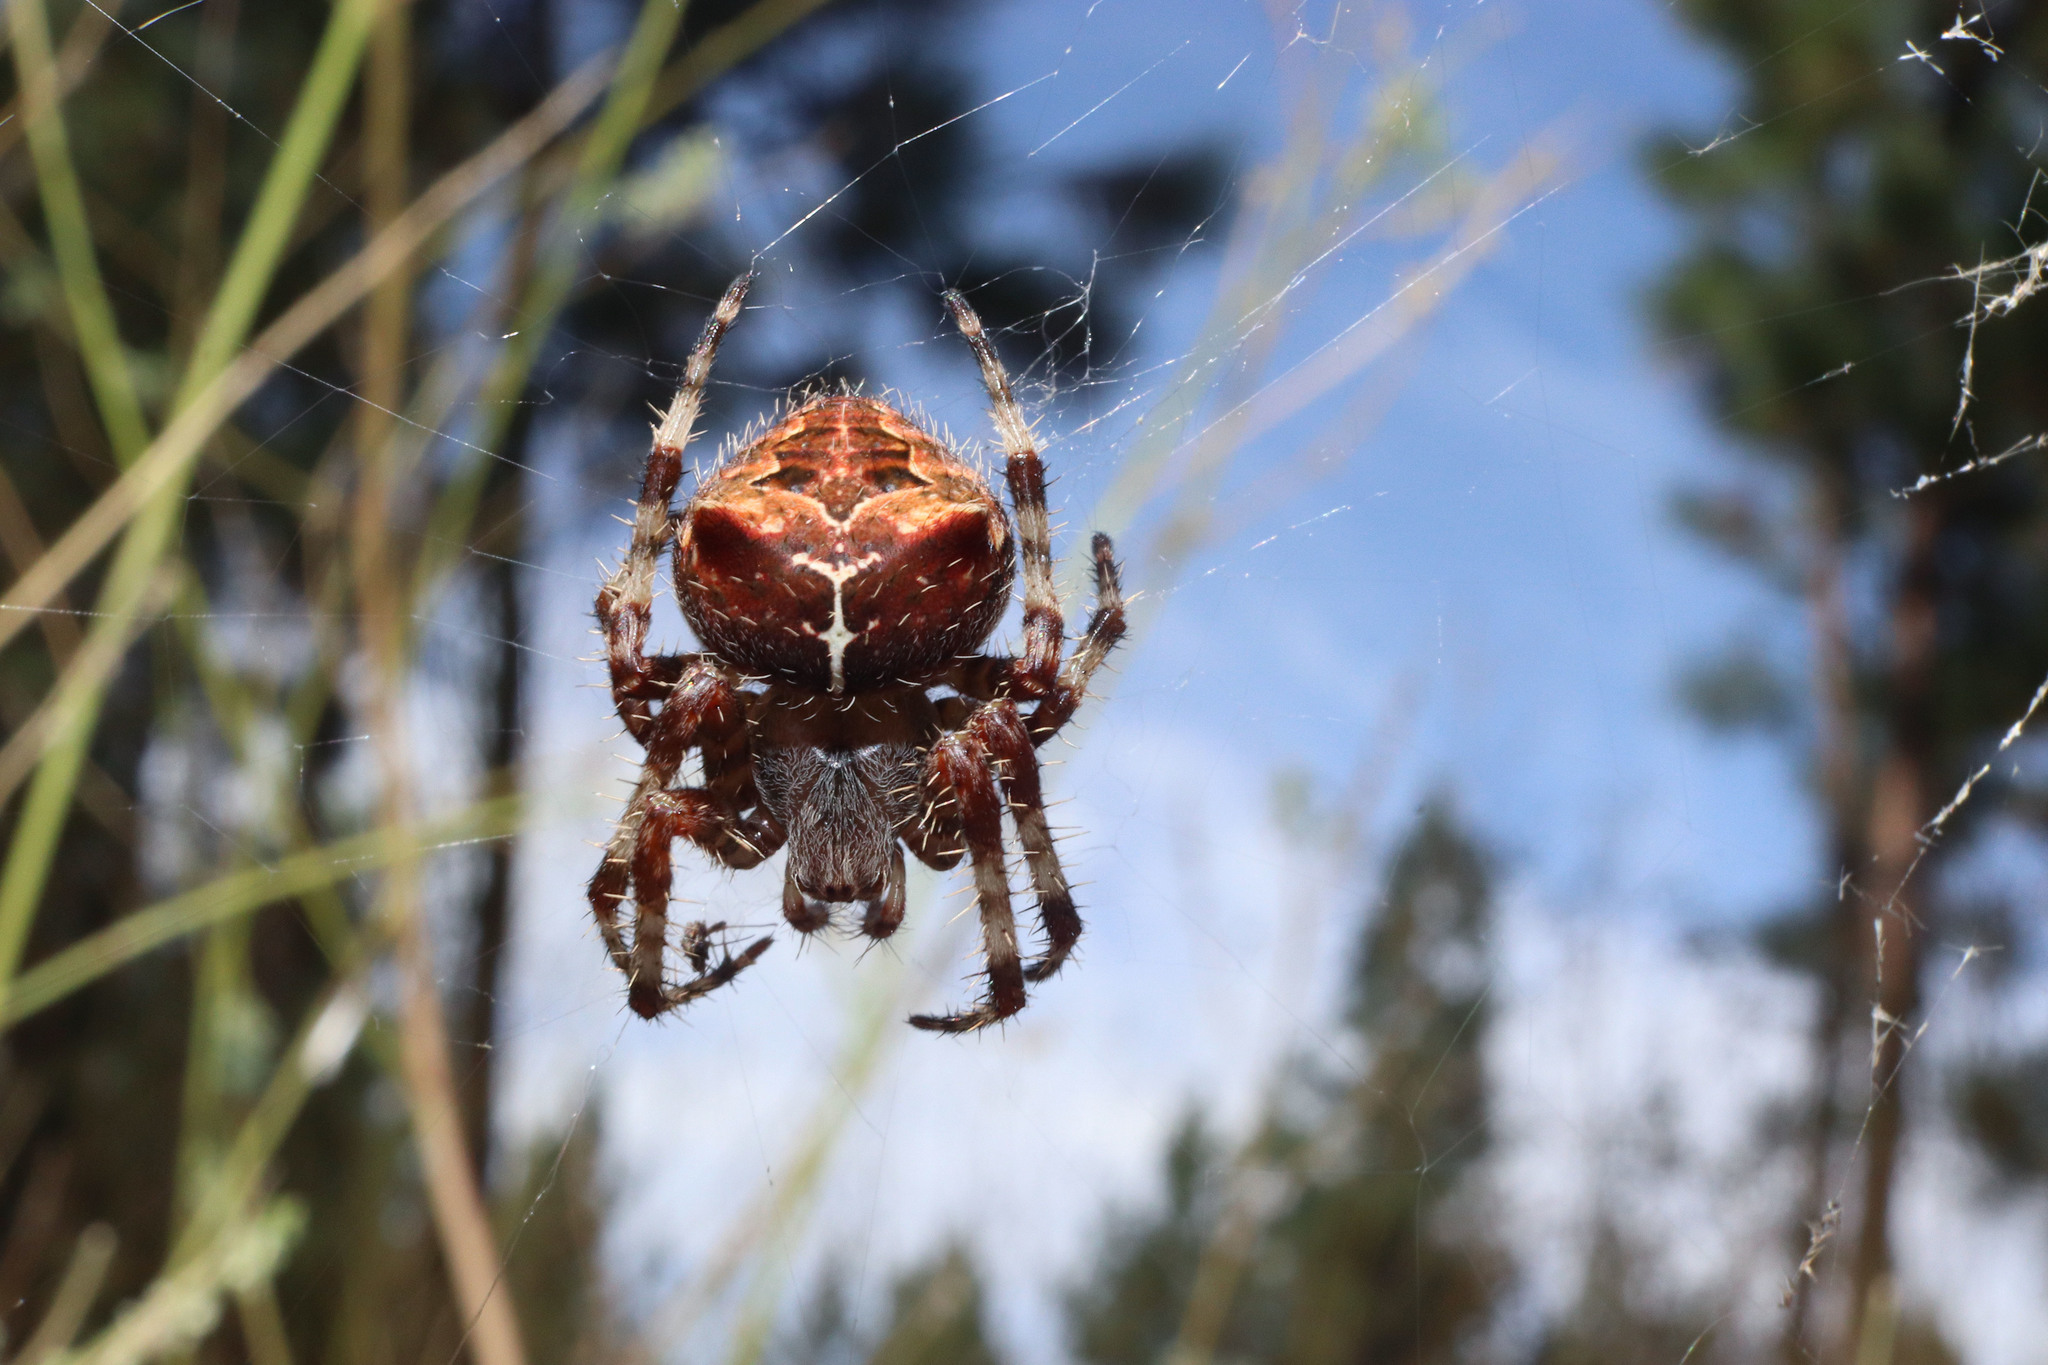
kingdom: Animalia
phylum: Arthropoda
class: Arachnida
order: Araneae
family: Araneidae
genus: Araneus
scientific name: Araneus gemmoides
